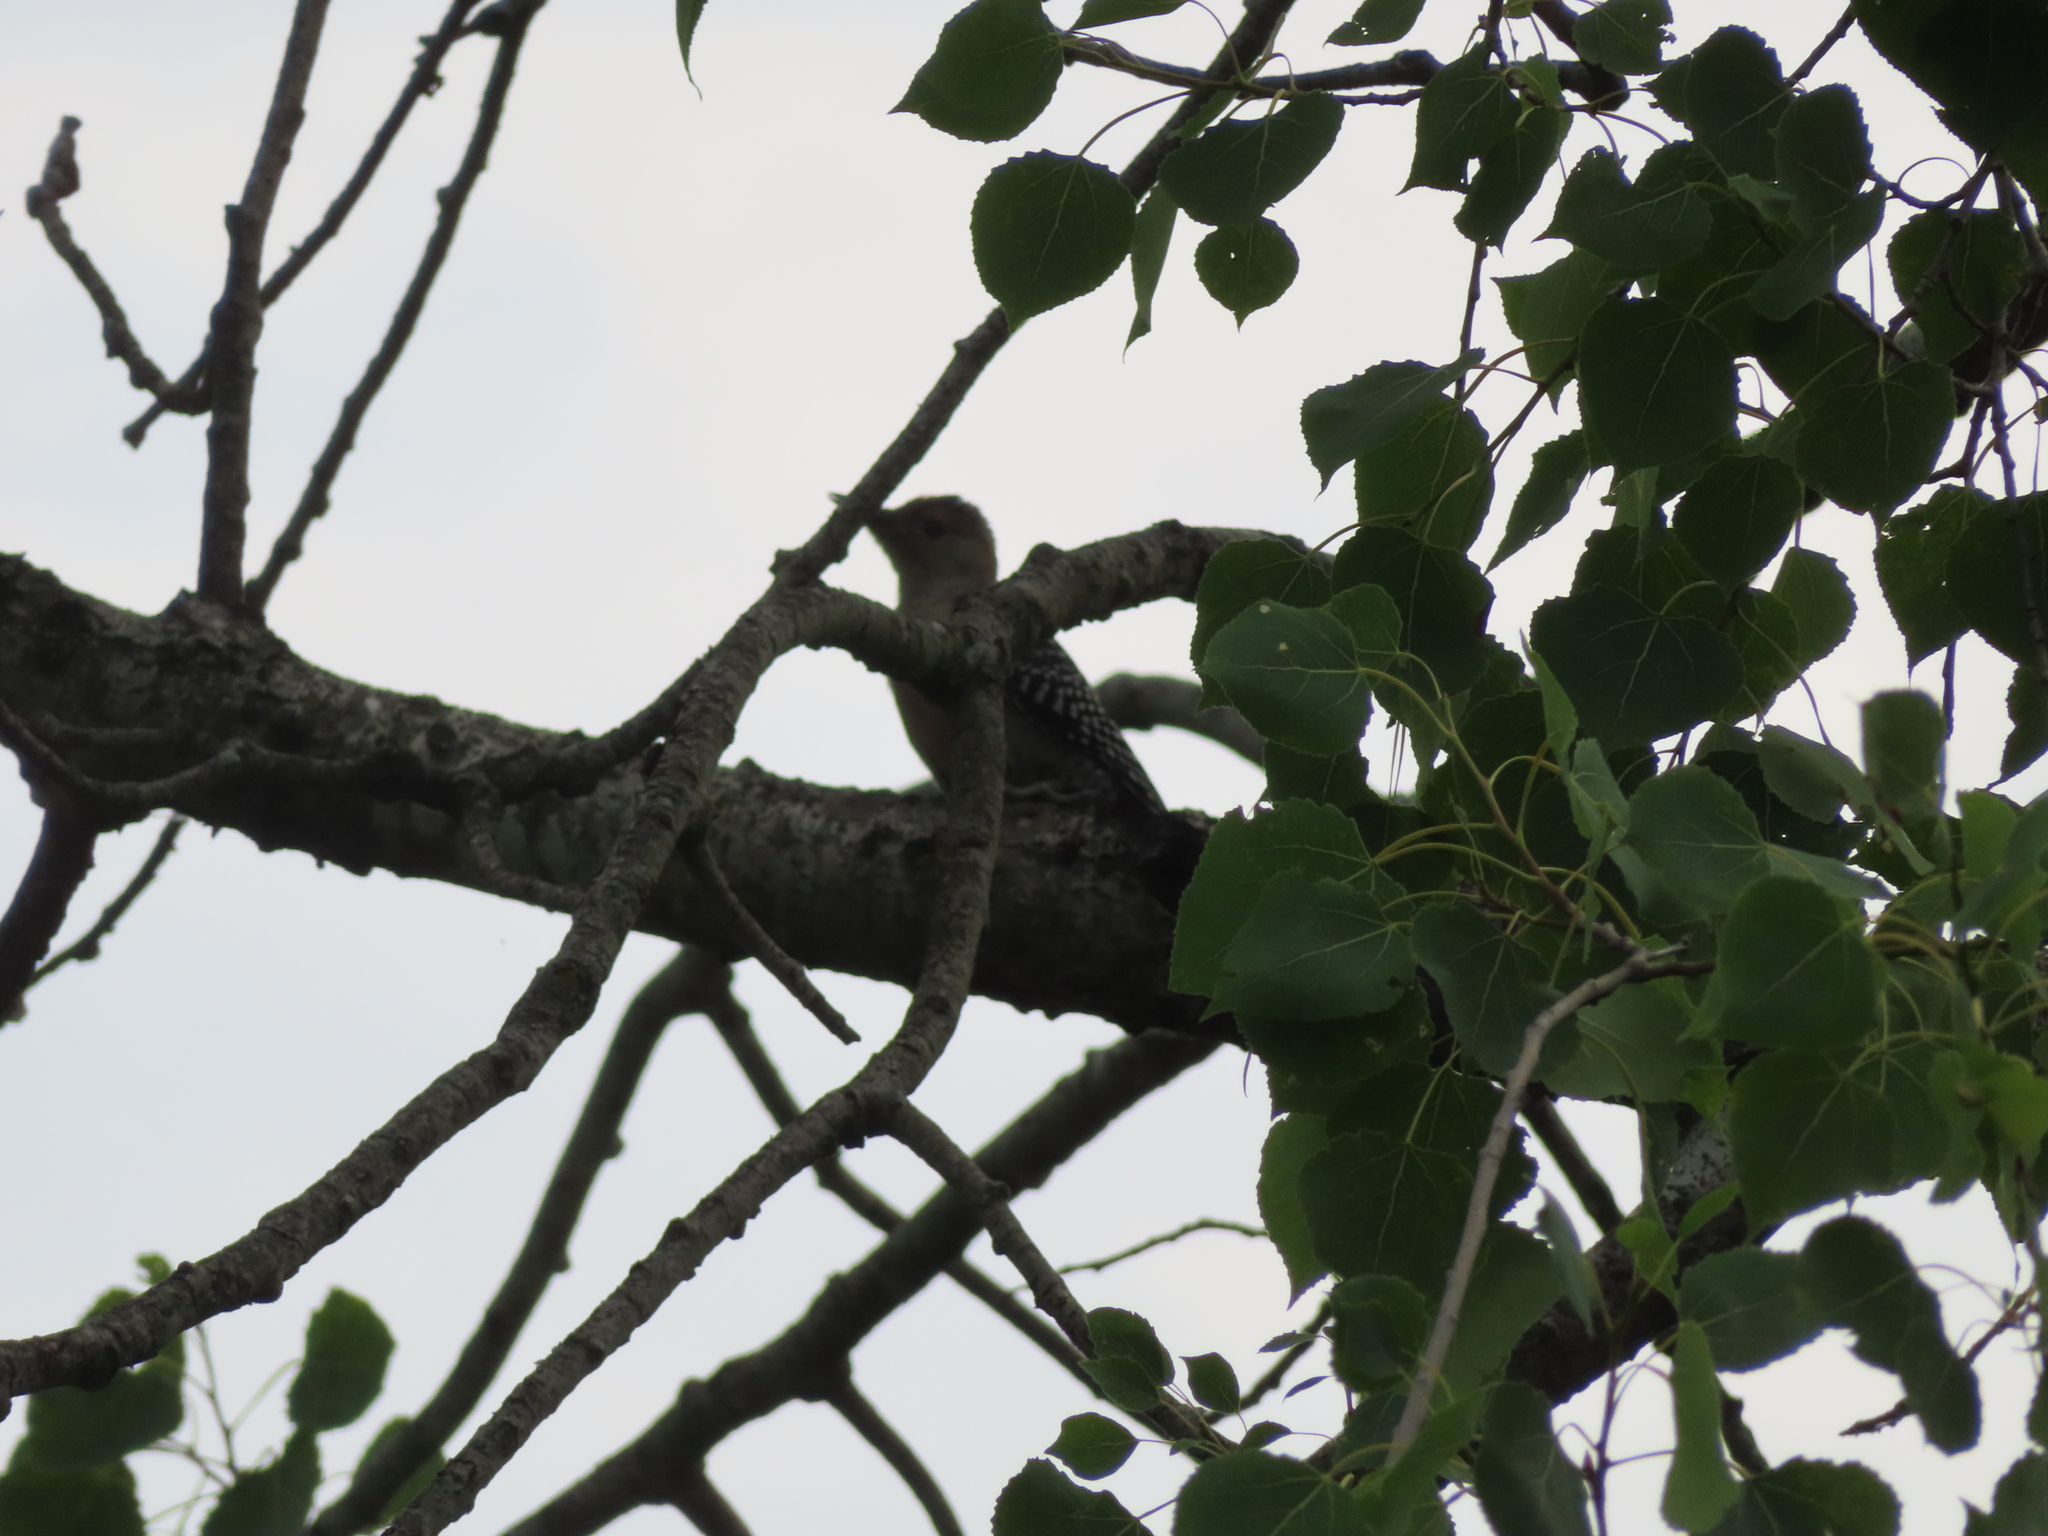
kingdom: Animalia
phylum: Chordata
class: Aves
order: Piciformes
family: Picidae
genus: Melanerpes
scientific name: Melanerpes carolinus
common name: Red-bellied woodpecker
